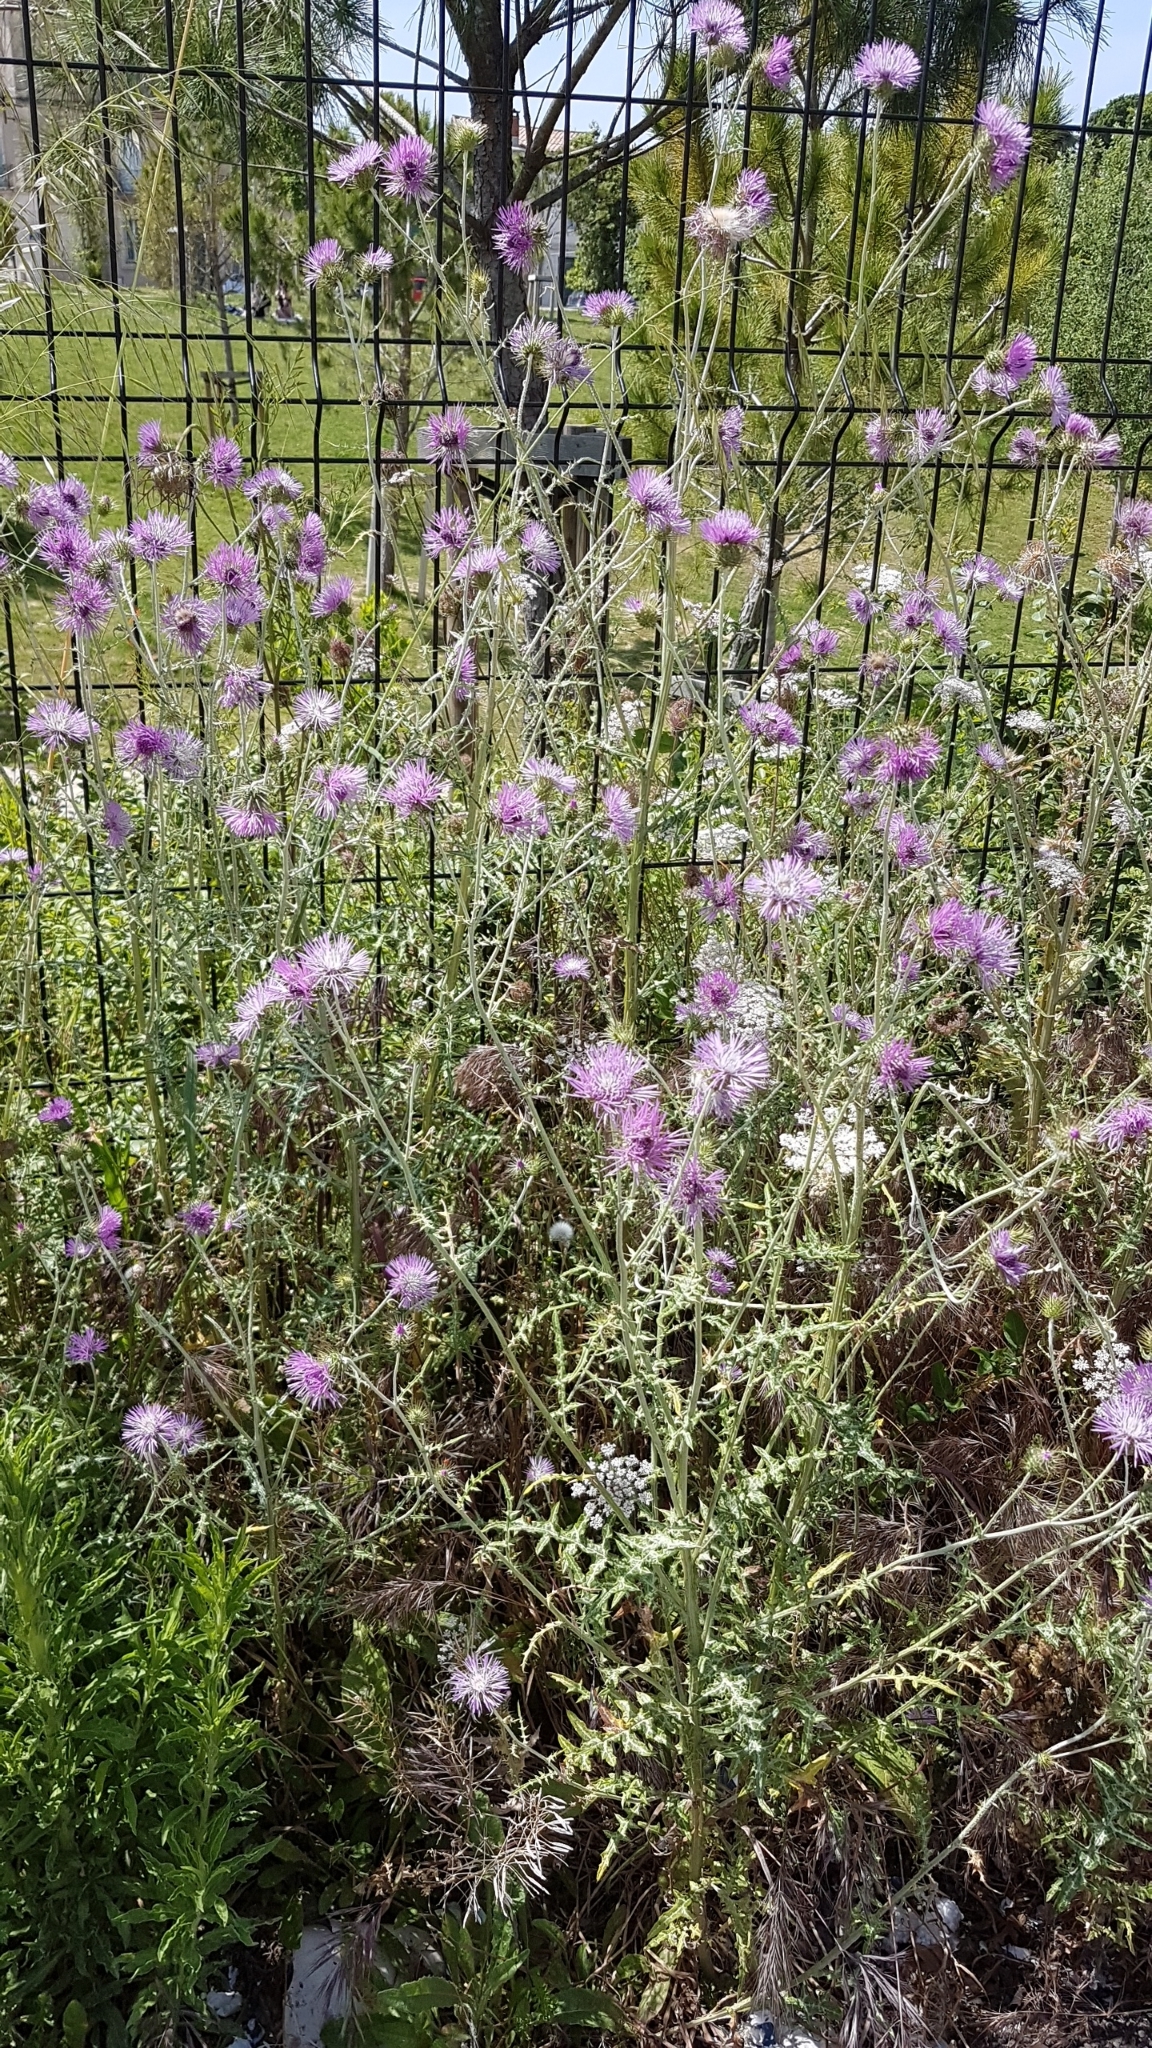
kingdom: Plantae
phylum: Tracheophyta
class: Magnoliopsida
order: Asterales
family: Asteraceae
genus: Galactites
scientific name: Galactites tomentosa
